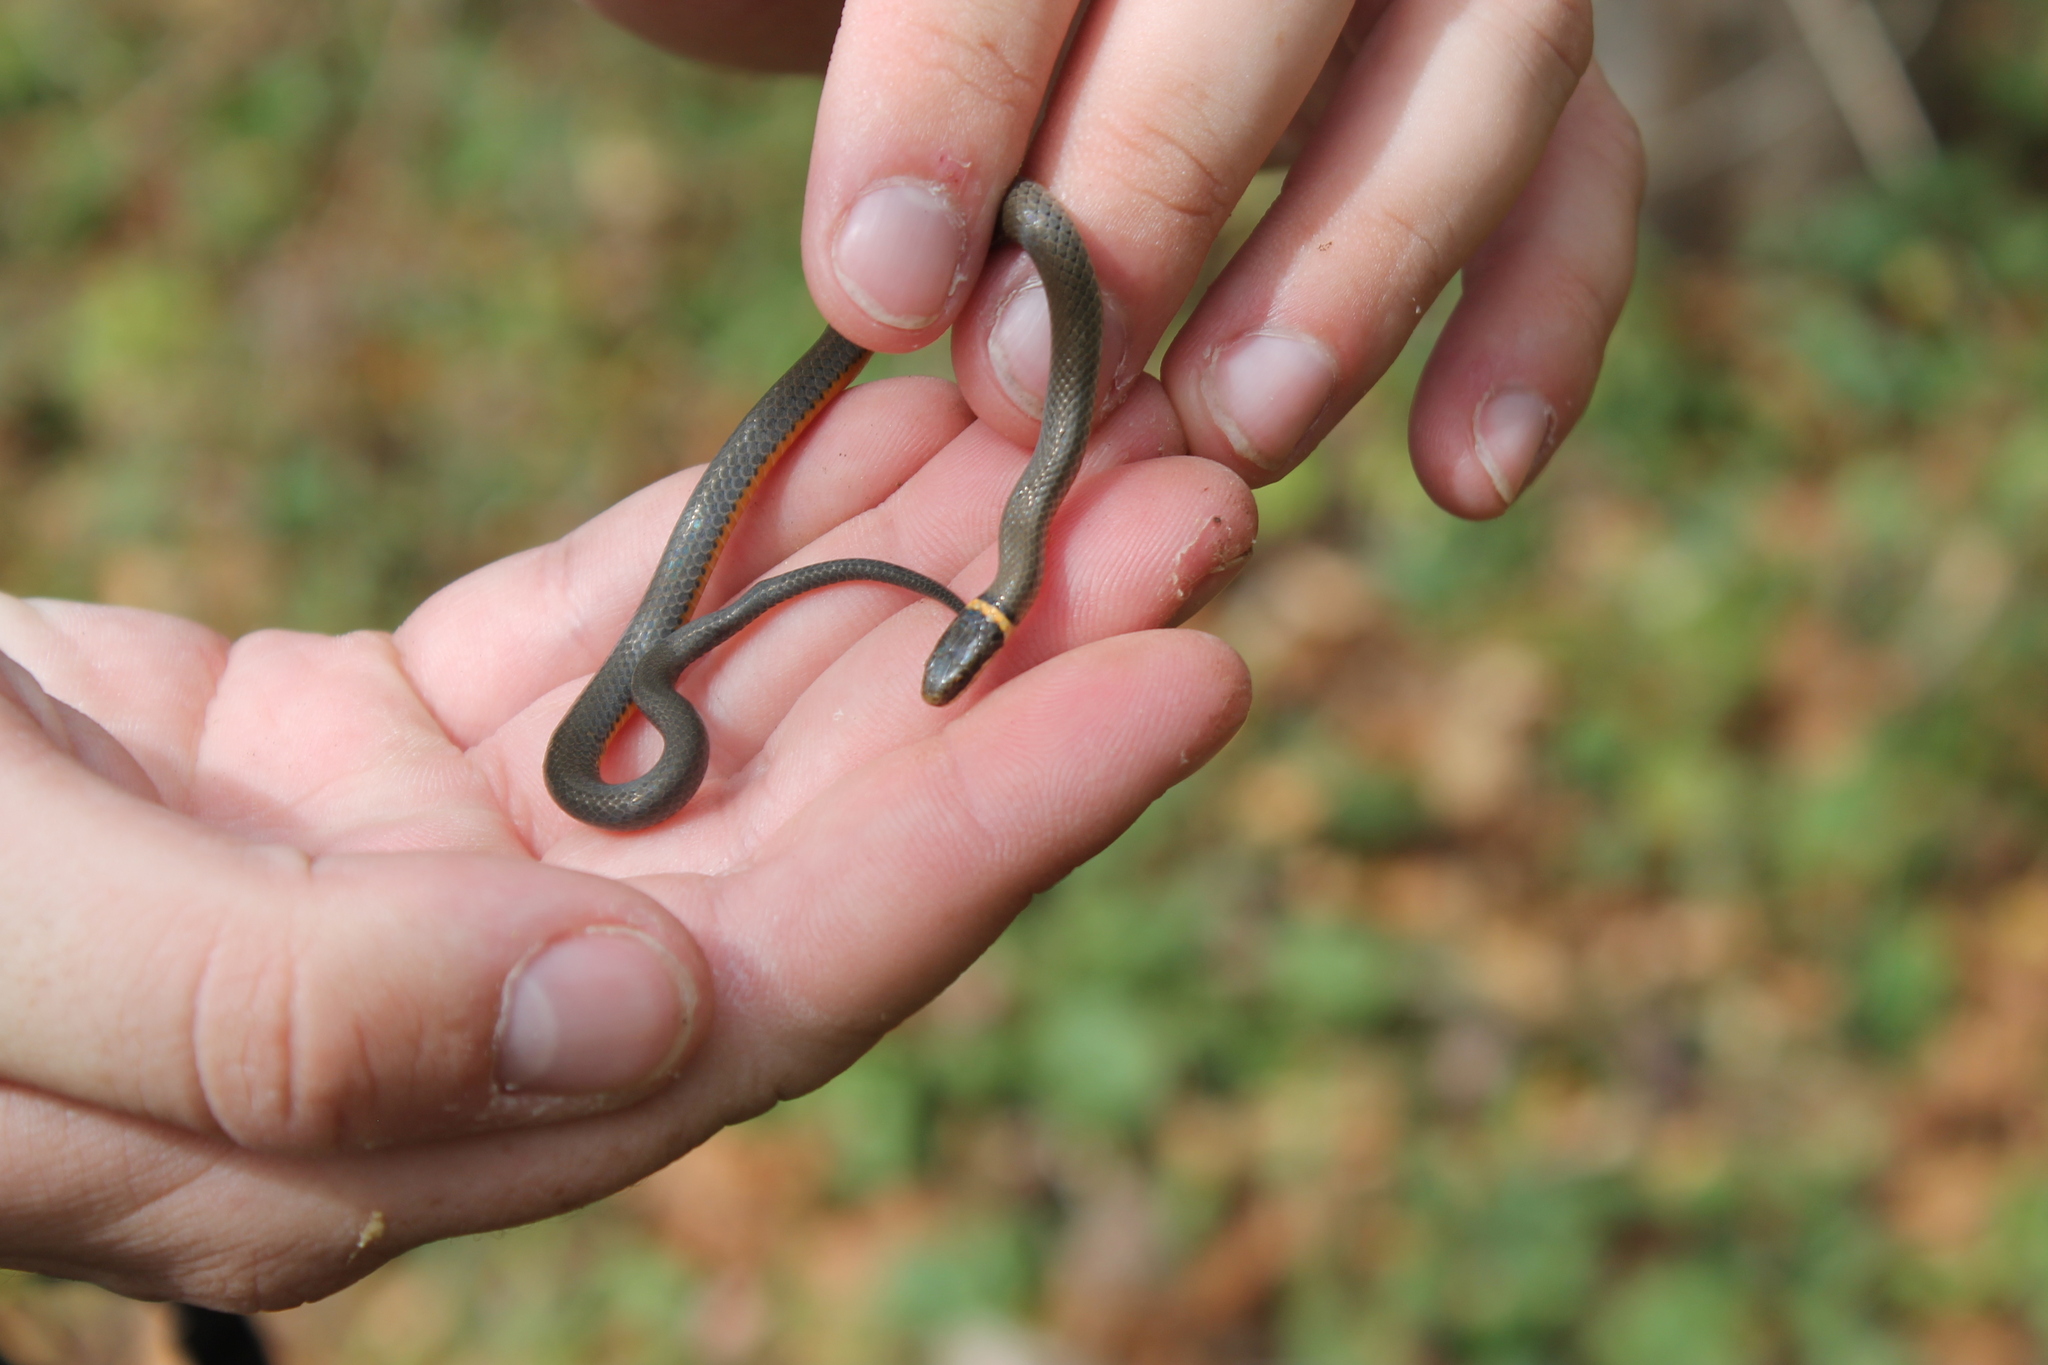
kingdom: Animalia
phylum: Chordata
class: Squamata
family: Colubridae
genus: Diadophis
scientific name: Diadophis punctatus
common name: Ringneck snake
